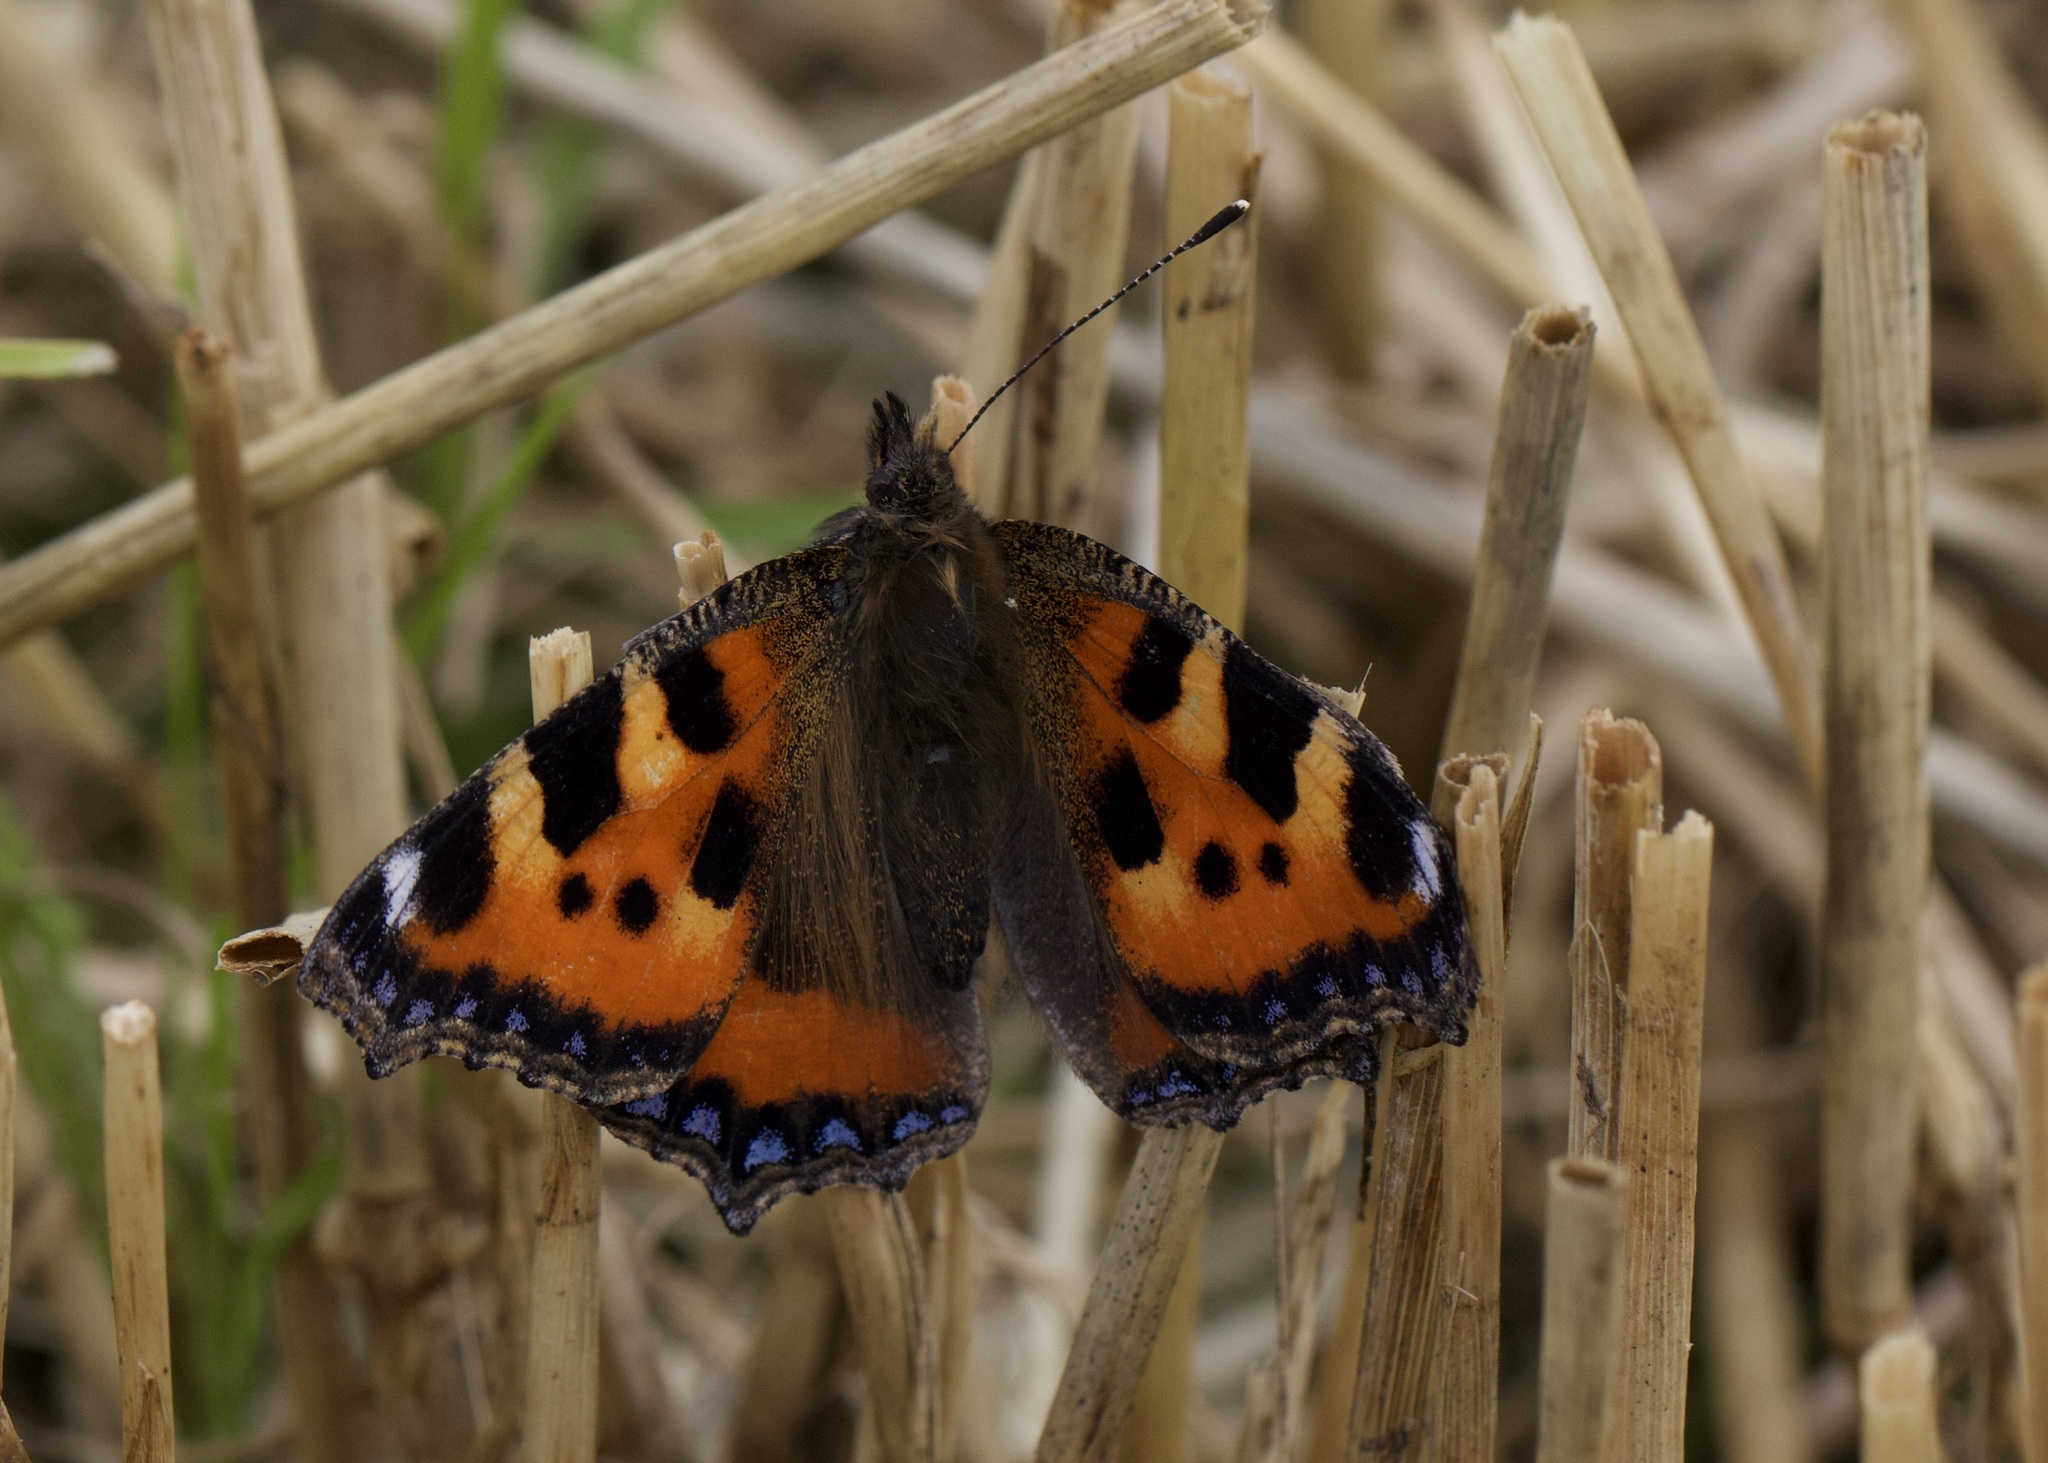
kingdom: Animalia
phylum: Arthropoda
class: Insecta
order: Lepidoptera
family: Nymphalidae
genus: Aglais
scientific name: Aglais urticae
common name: Small tortoiseshell
